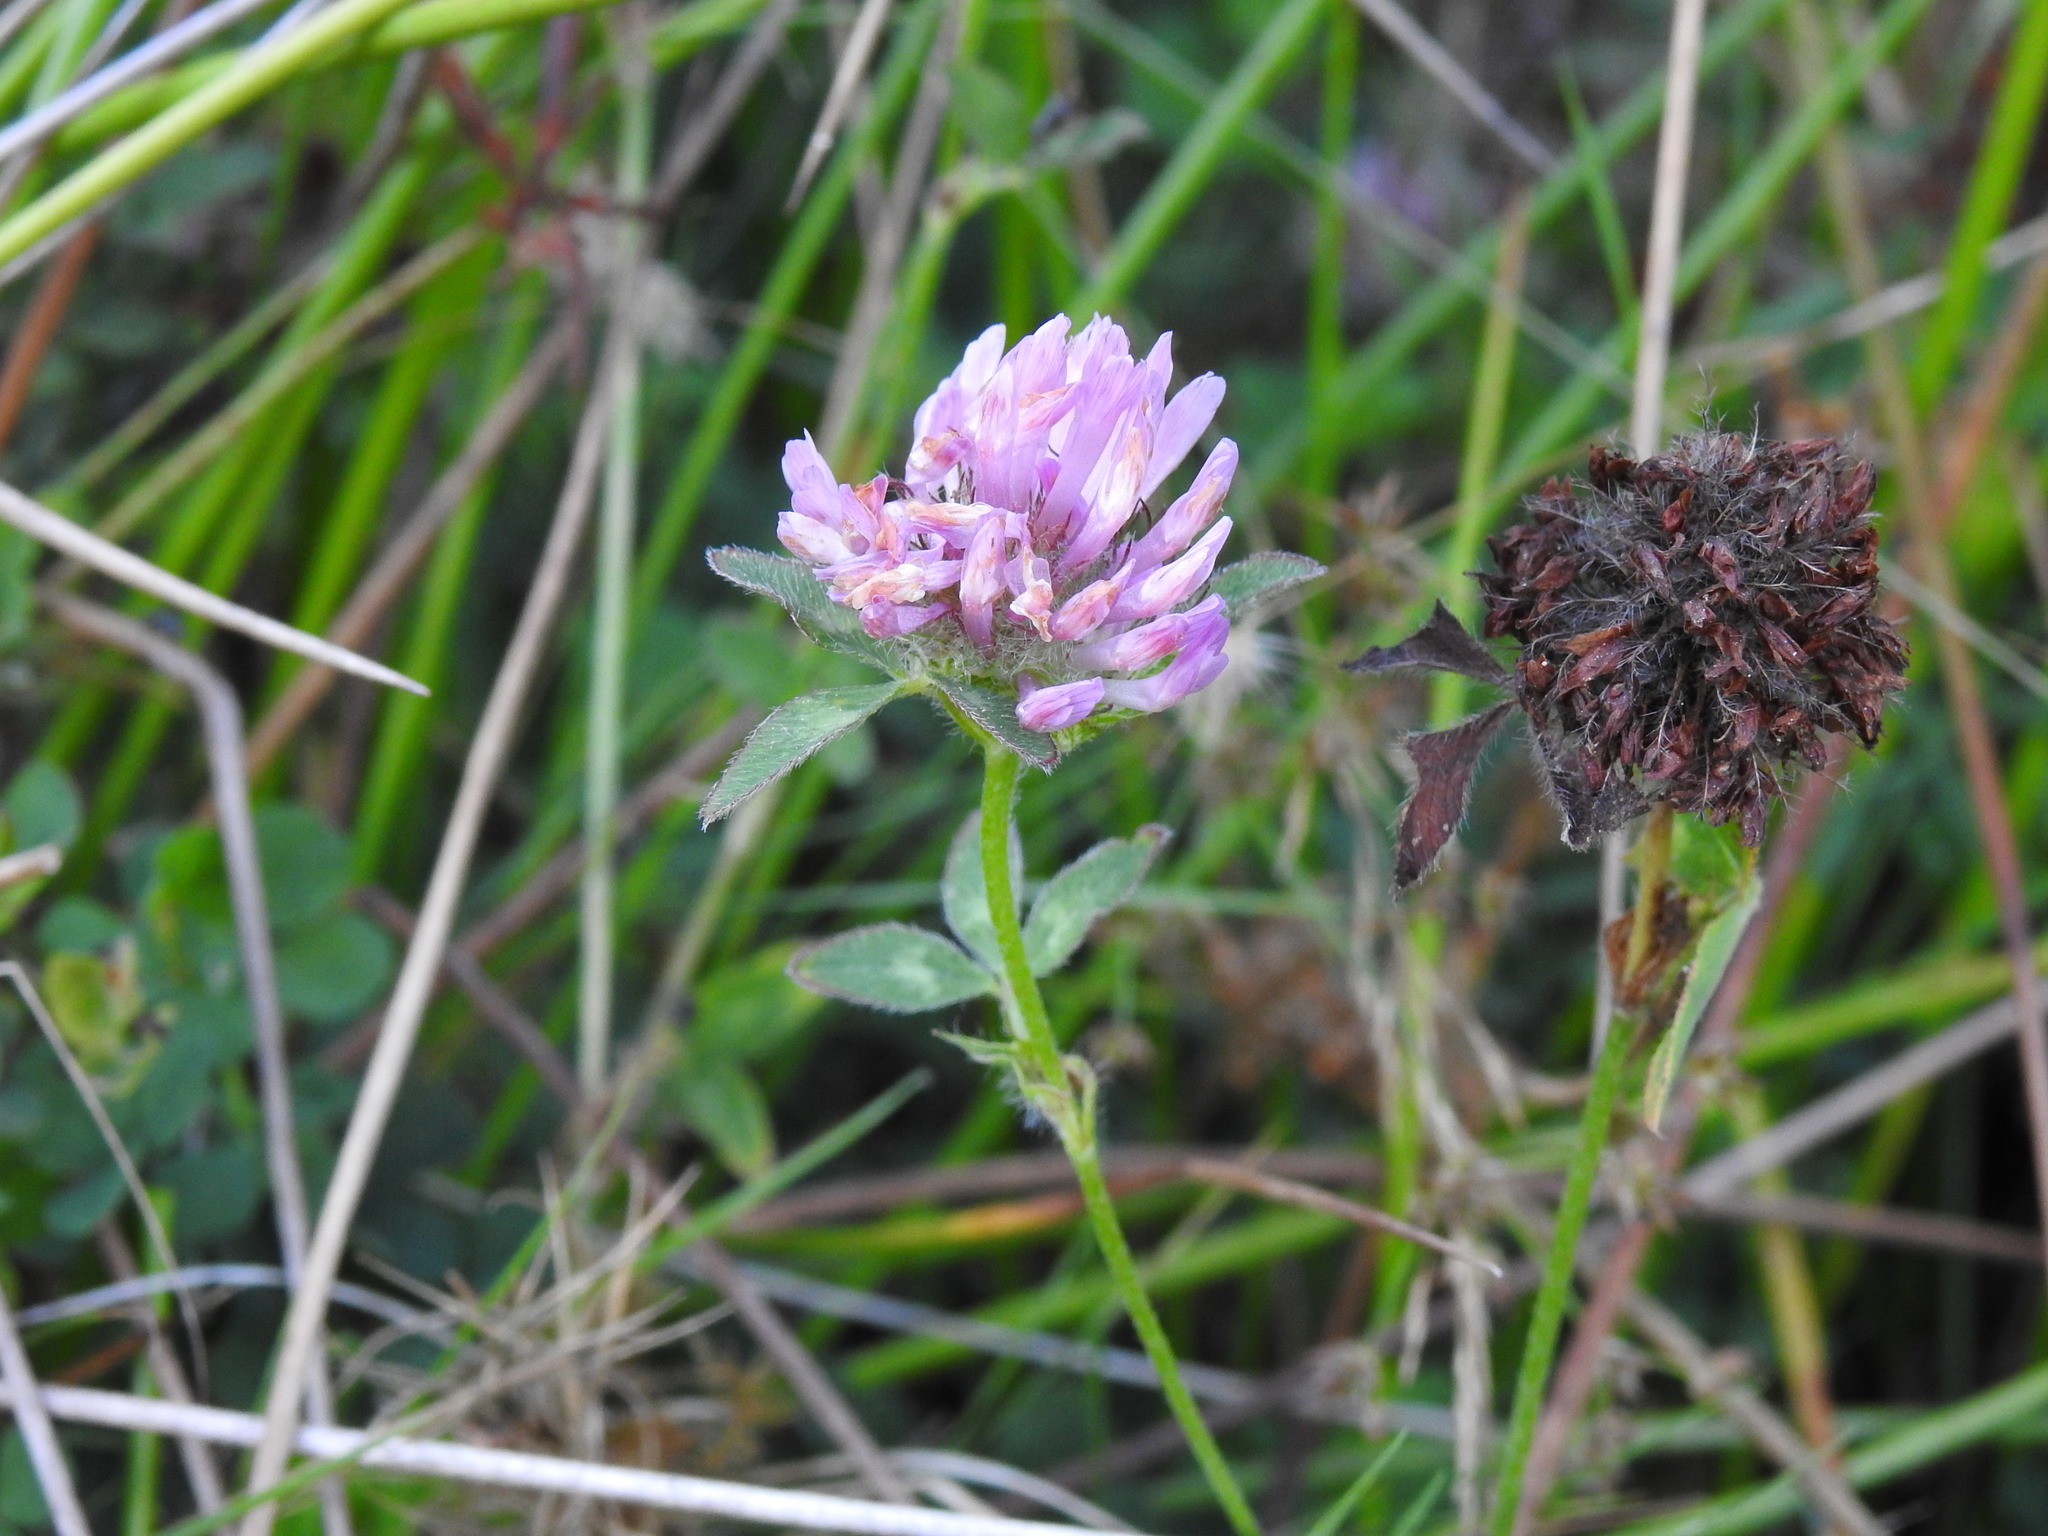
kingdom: Plantae
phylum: Tracheophyta
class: Magnoliopsida
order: Fabales
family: Fabaceae
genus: Trifolium
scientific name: Trifolium pratense
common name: Red clover
